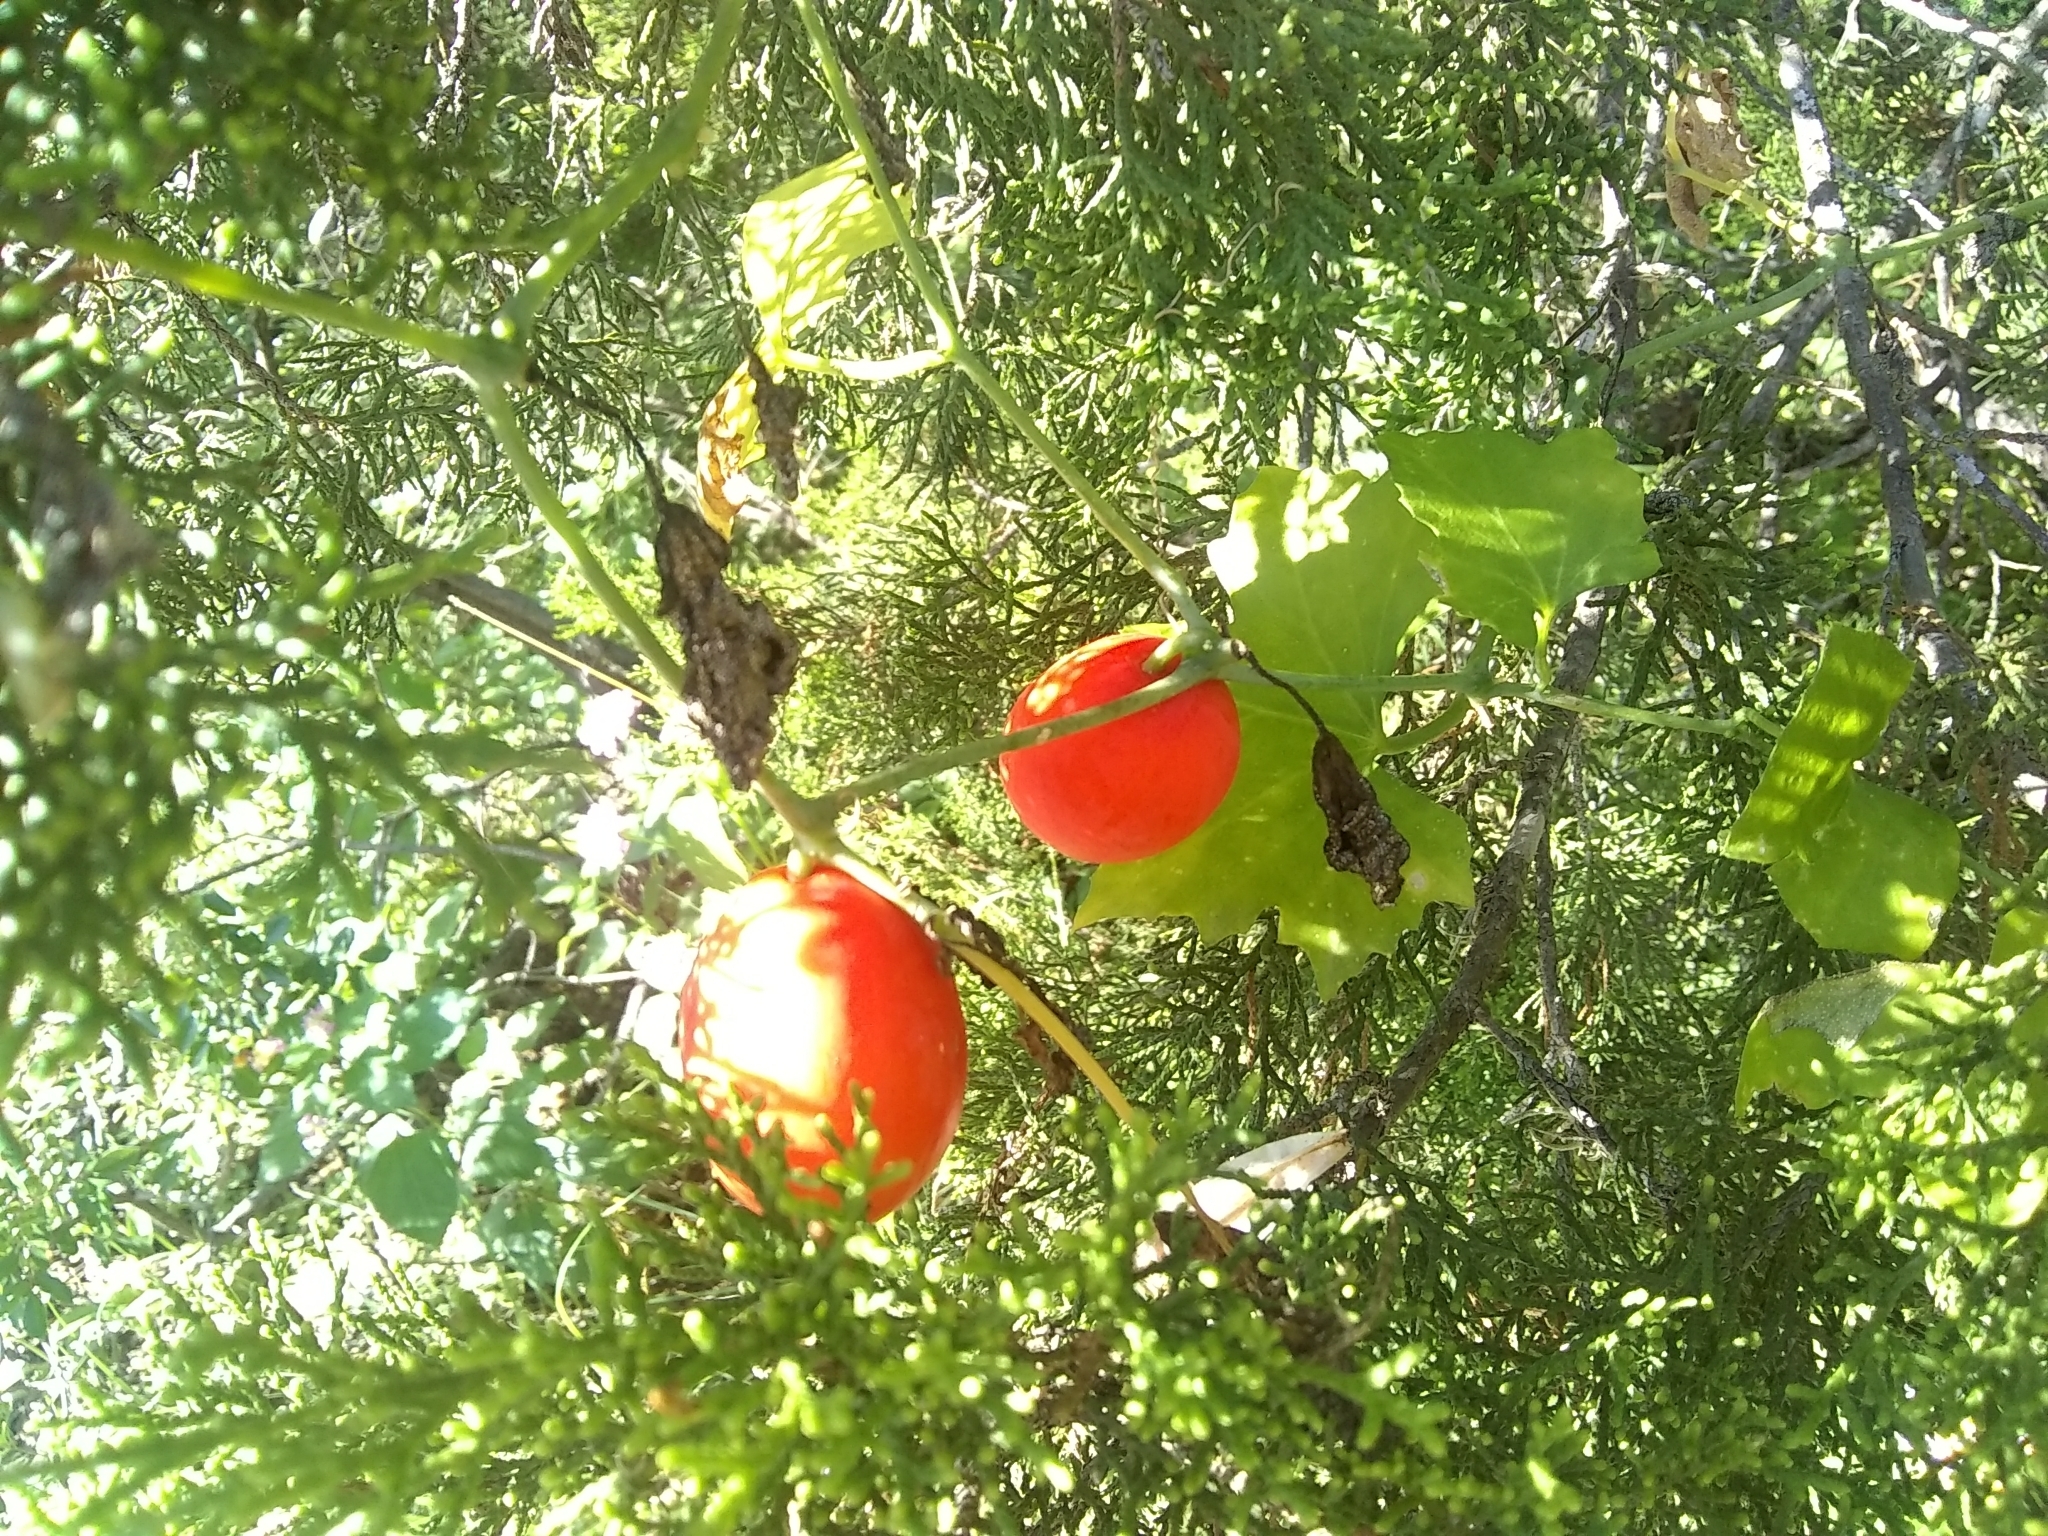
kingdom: Plantae
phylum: Tracheophyta
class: Magnoliopsida
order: Cucurbitales
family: Cucurbitaceae
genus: Ibervillea
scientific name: Ibervillea lindheimeri
